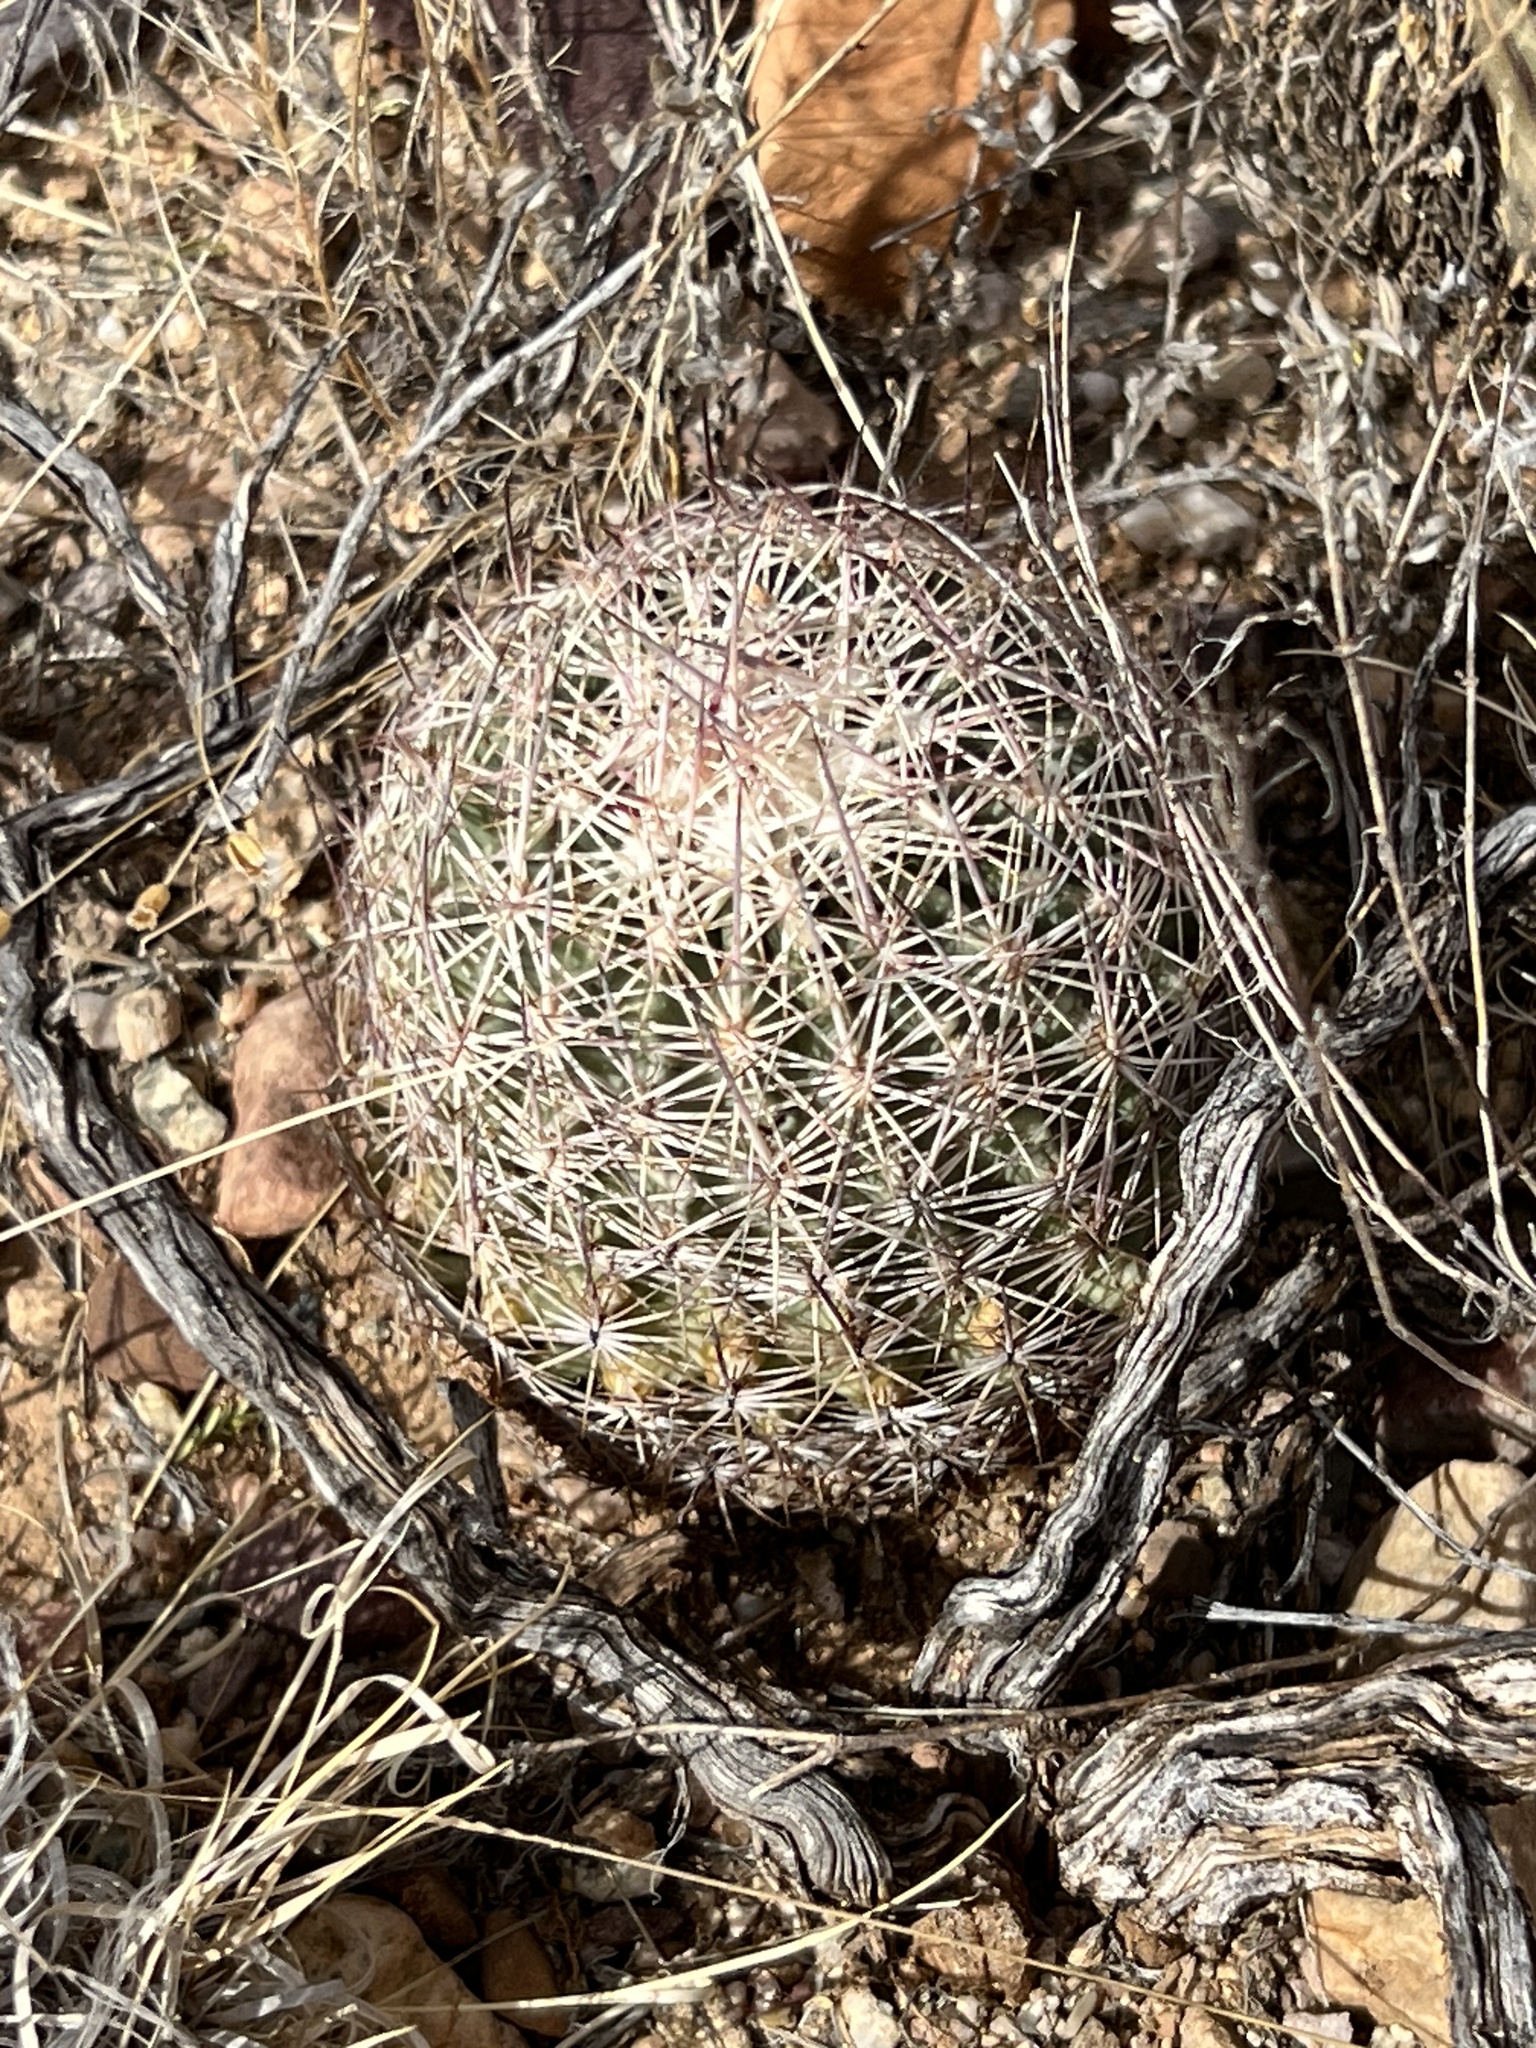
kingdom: Plantae
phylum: Tracheophyta
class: Magnoliopsida
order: Caryophyllales
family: Cactaceae
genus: Sclerocactus
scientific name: Sclerocactus johnsonii
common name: Eight-spine fishhook cactus
